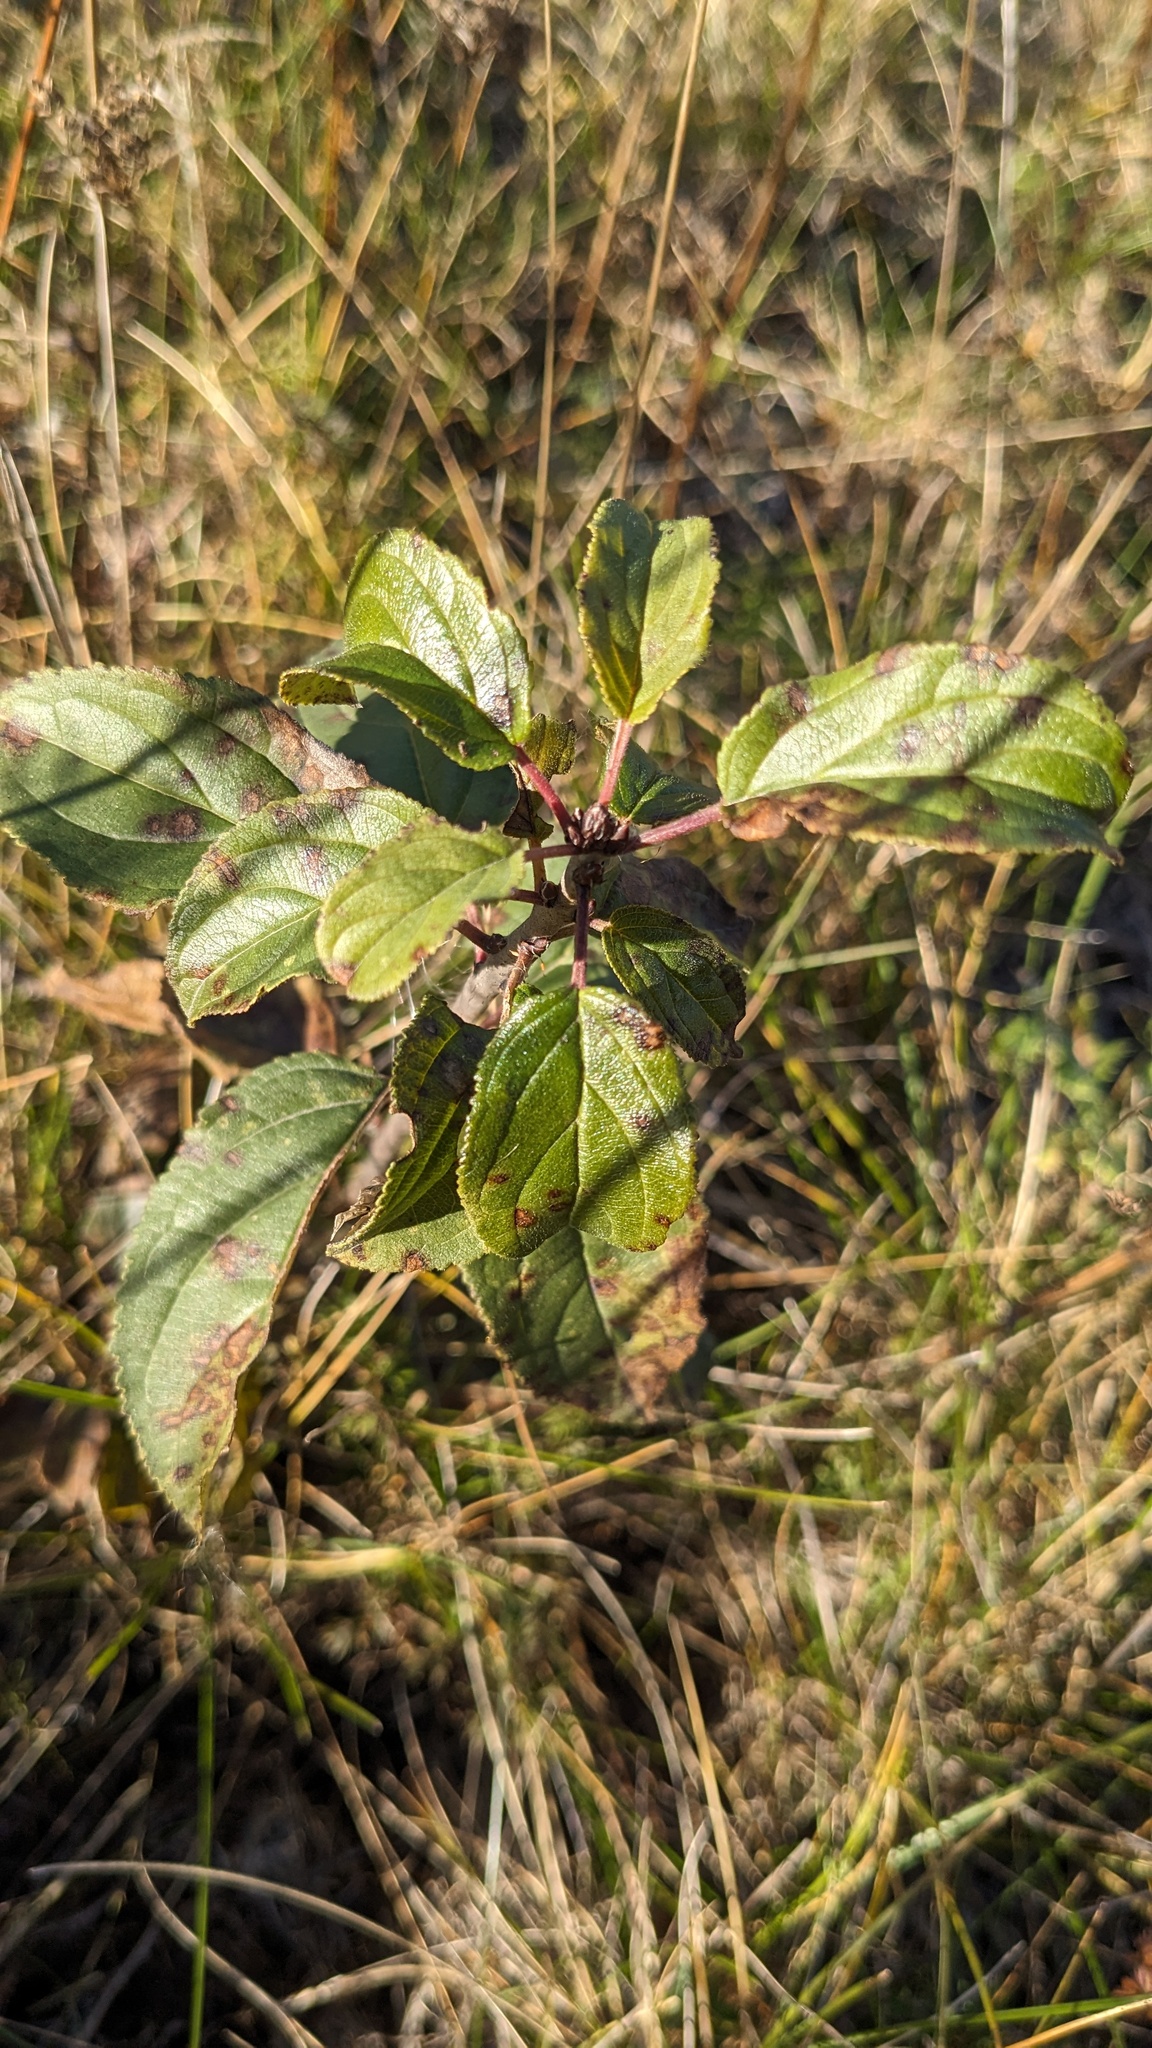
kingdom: Plantae
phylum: Tracheophyta
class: Magnoliopsida
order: Rosales
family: Rhamnaceae
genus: Rhamnus
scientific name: Rhamnus cathartica
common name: Common buckthorn
